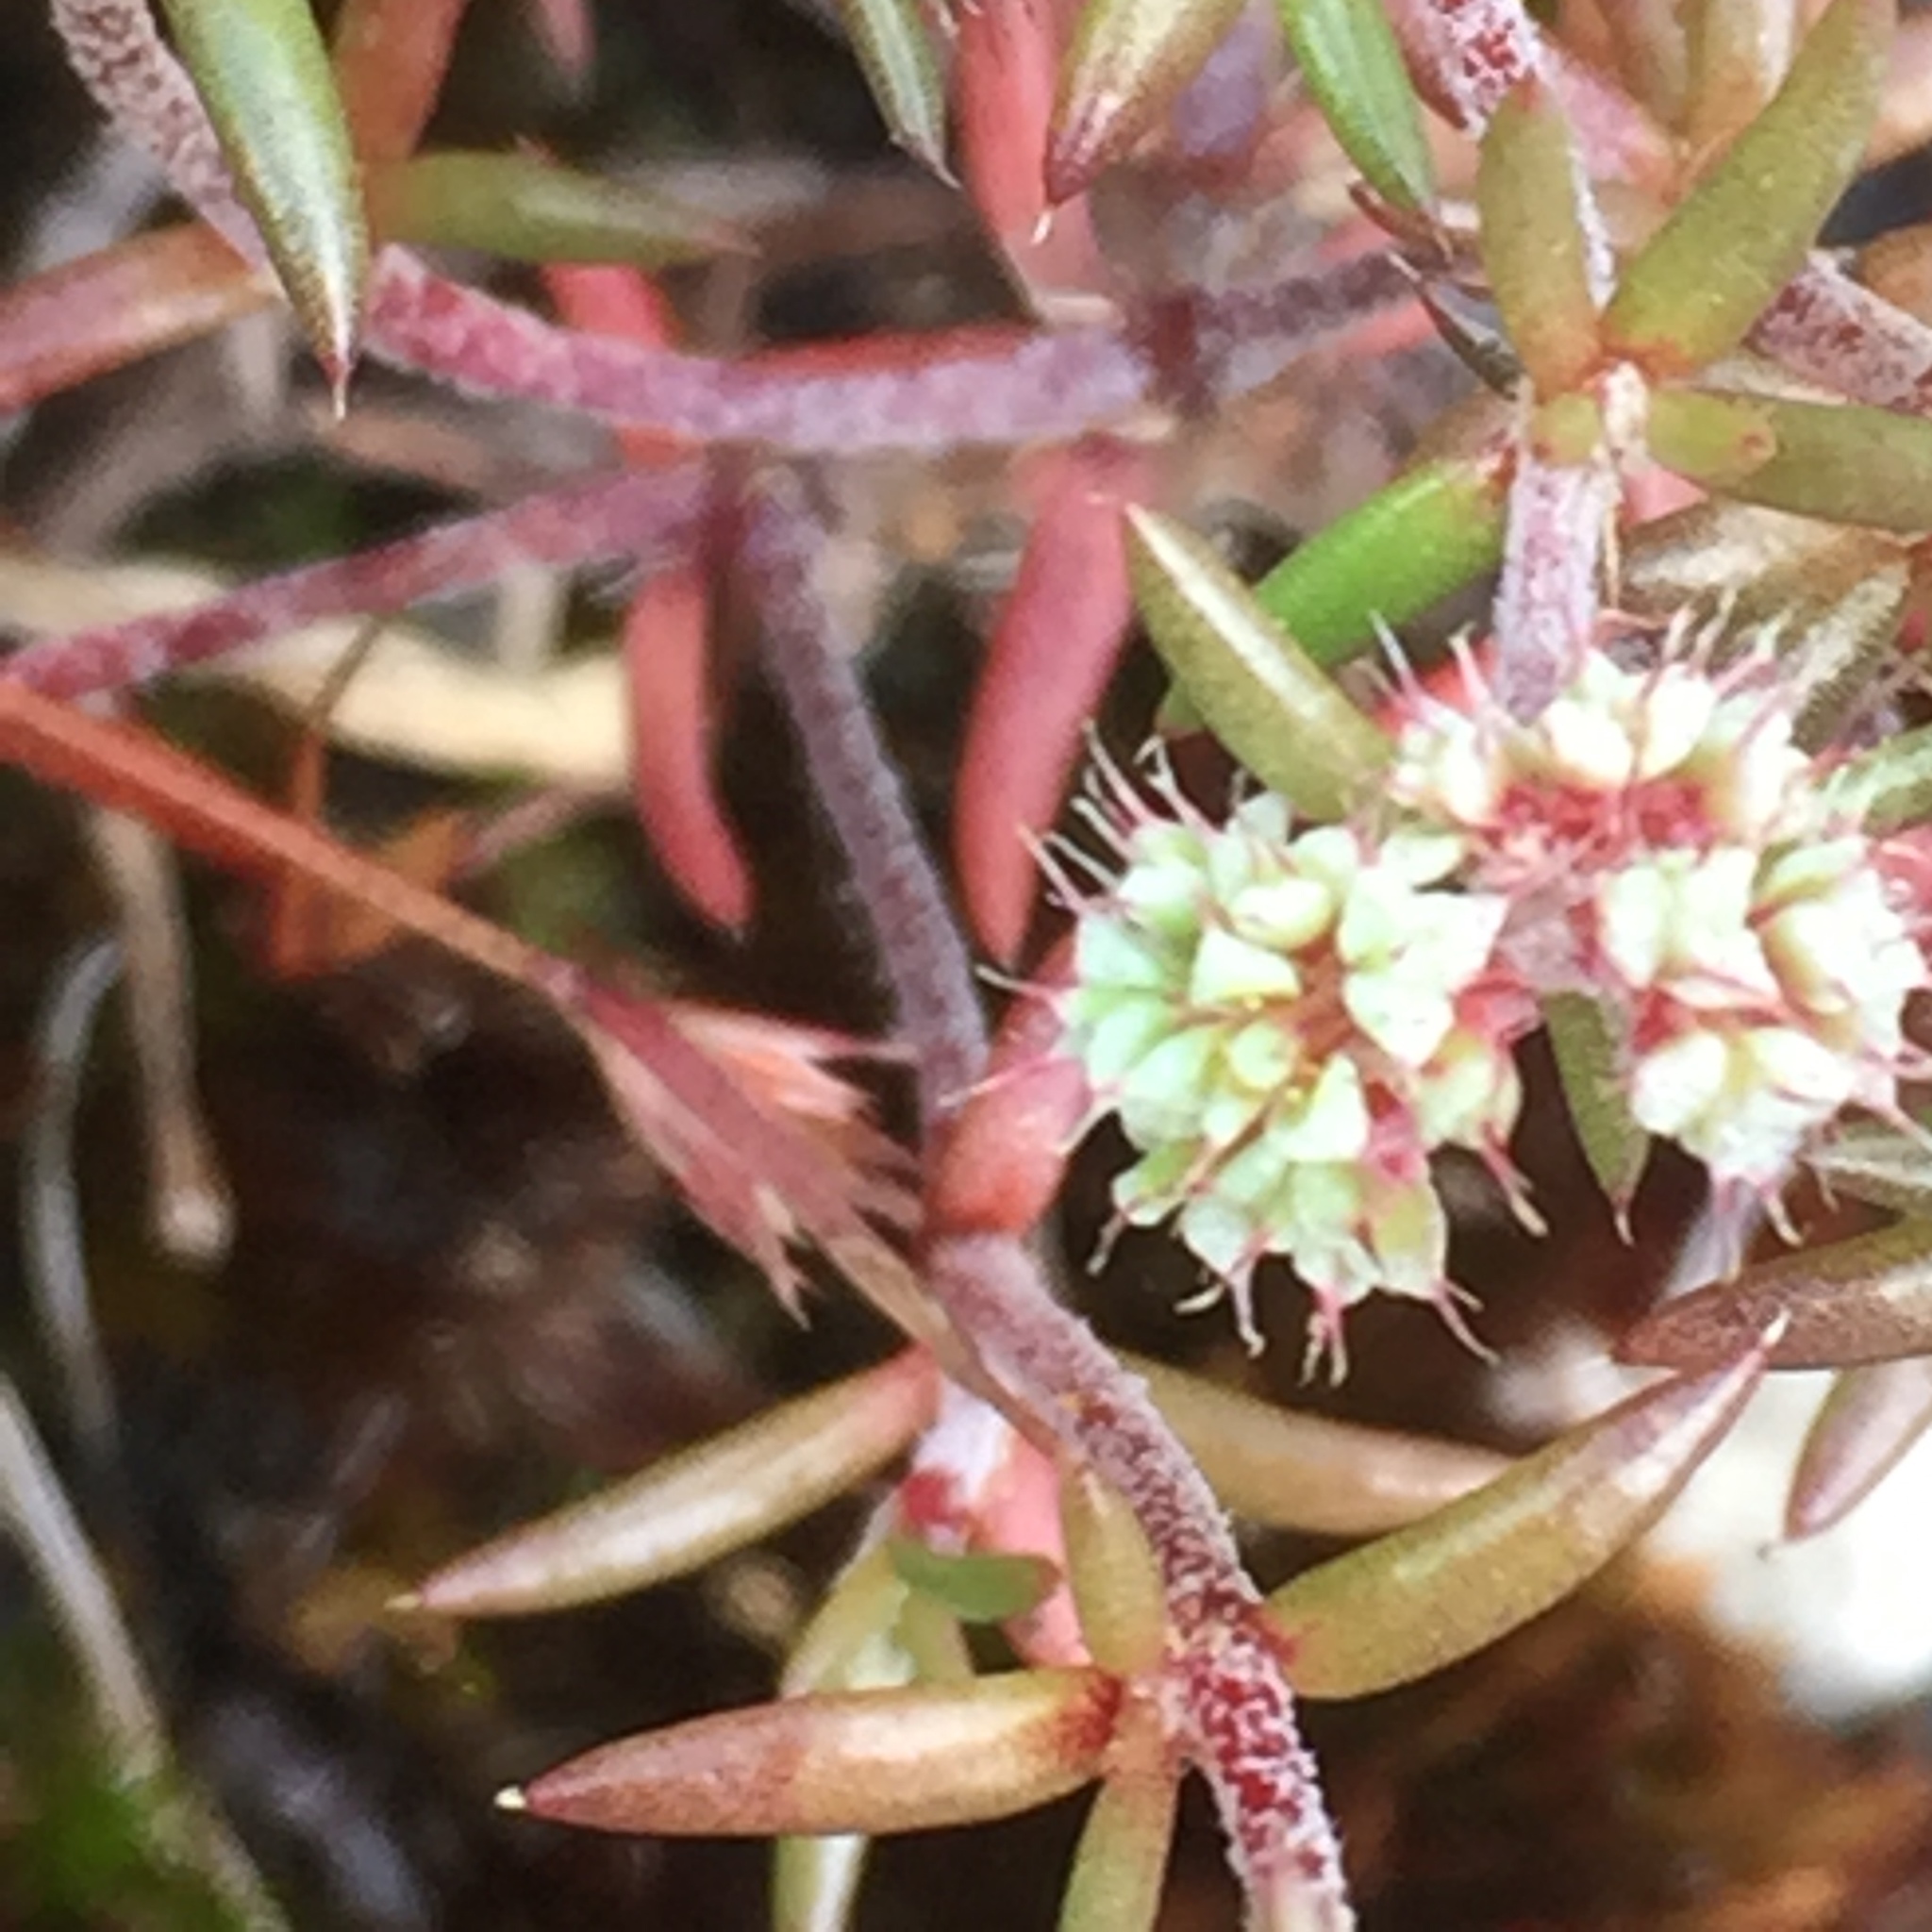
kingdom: Plantae
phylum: Tracheophyta
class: Magnoliopsida
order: Caryophyllales
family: Caryophyllaceae
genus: Chaetonychia
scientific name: Chaetonychia cymosa
